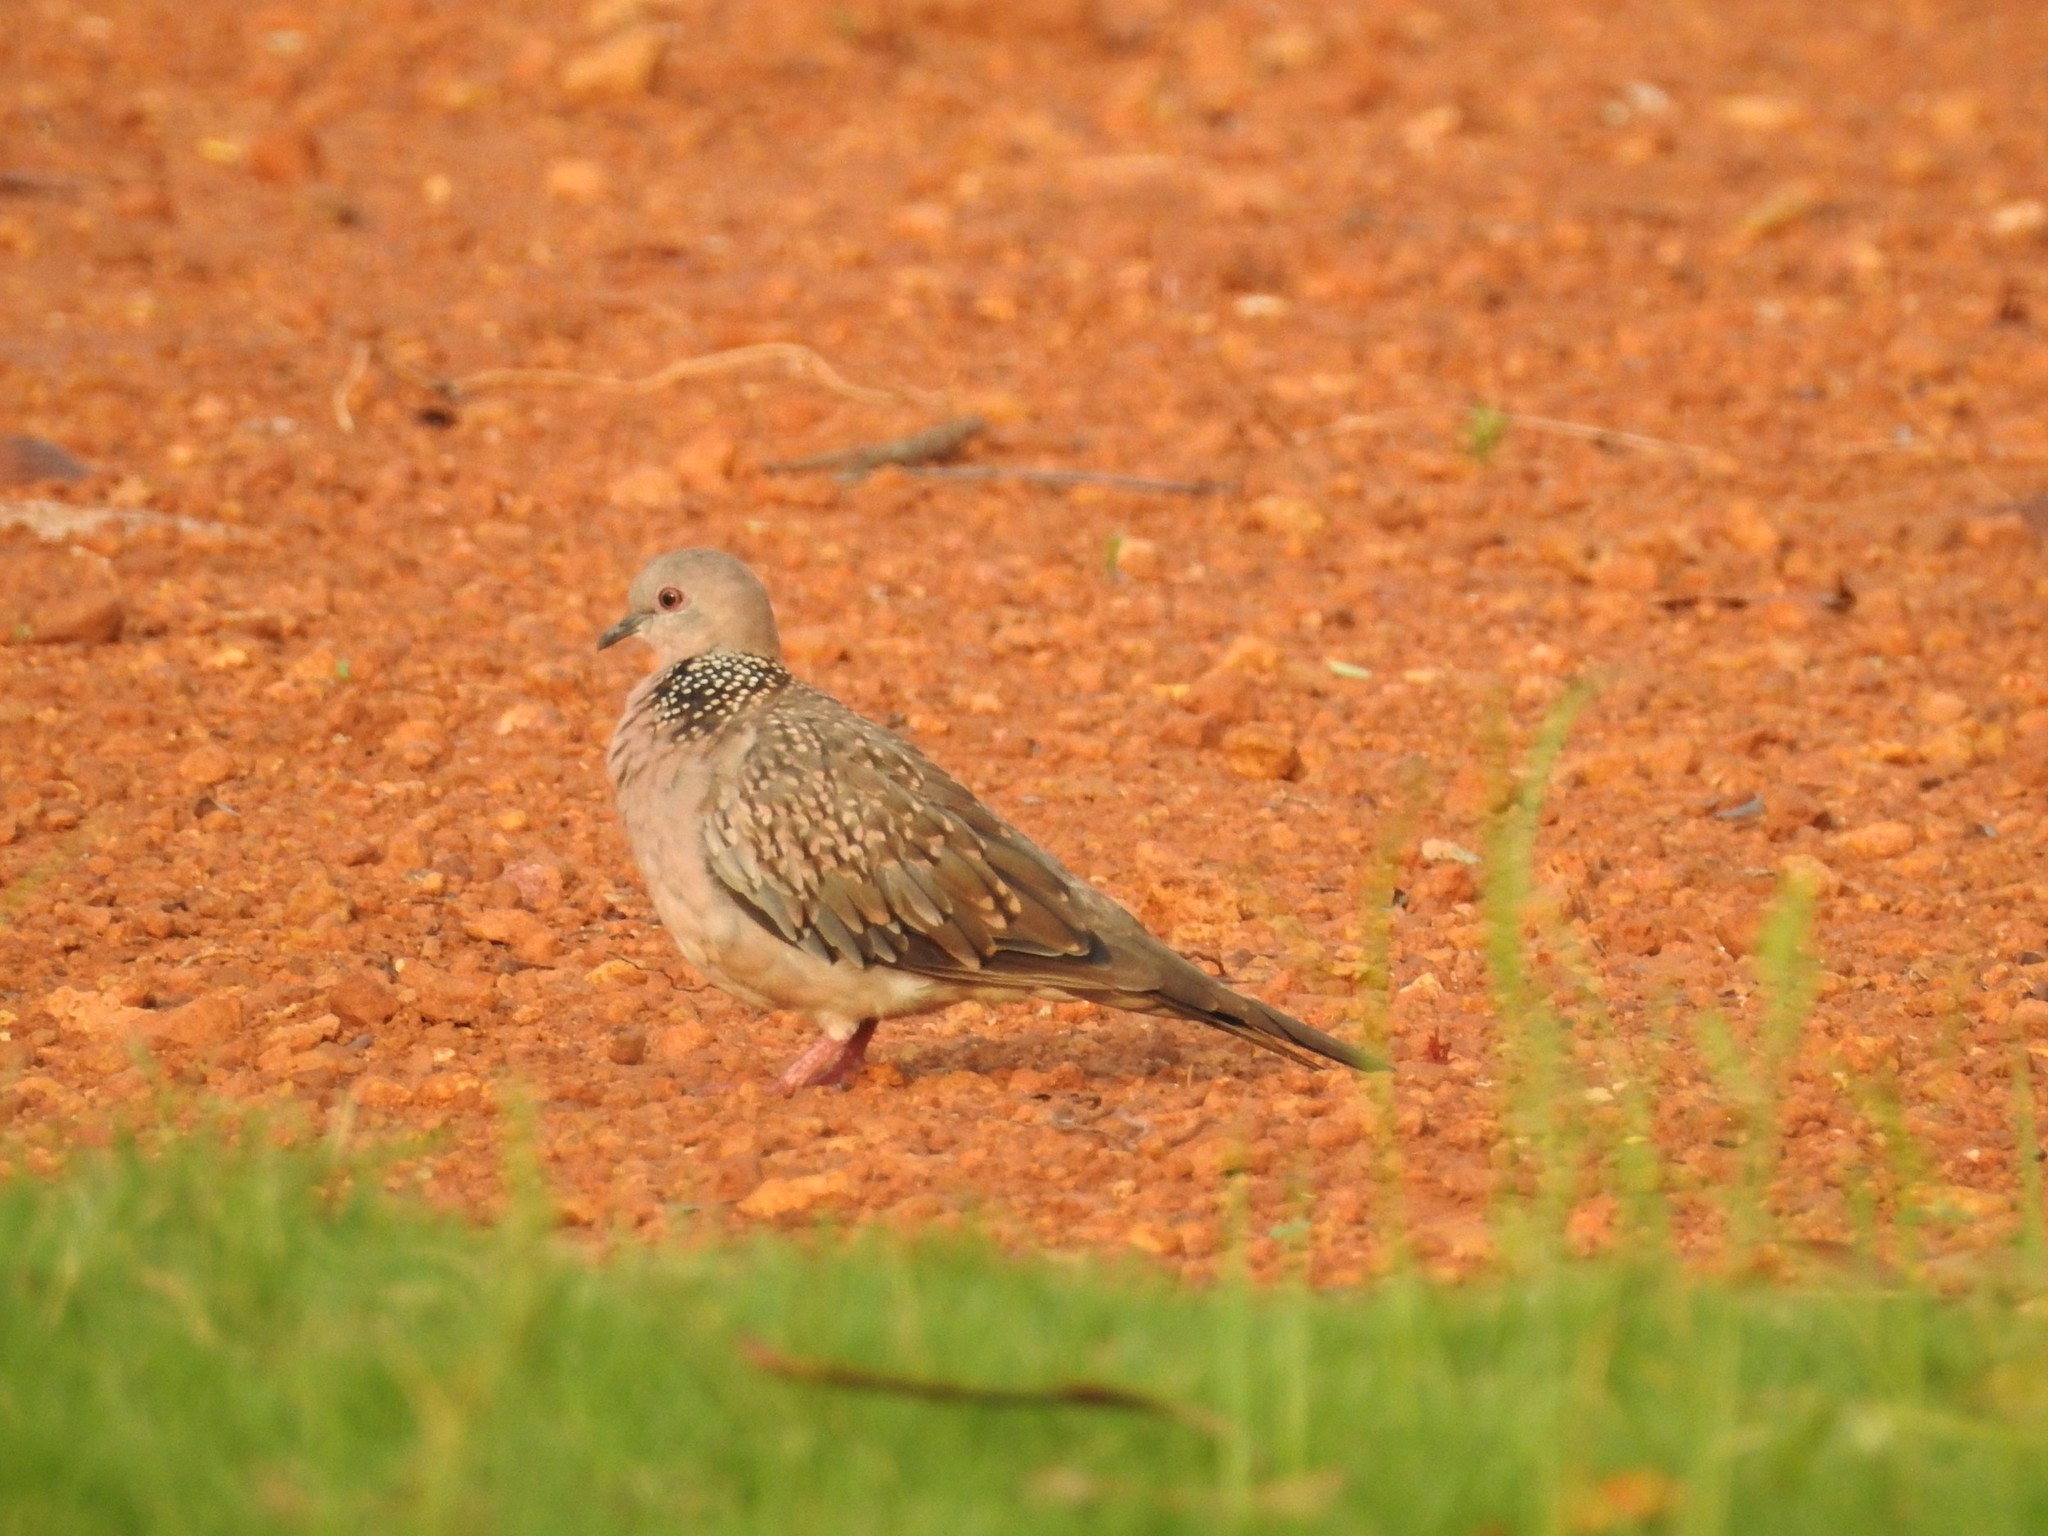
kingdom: Animalia
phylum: Chordata
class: Aves
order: Columbiformes
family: Columbidae
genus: Spilopelia
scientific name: Spilopelia chinensis
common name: Spotted dove
